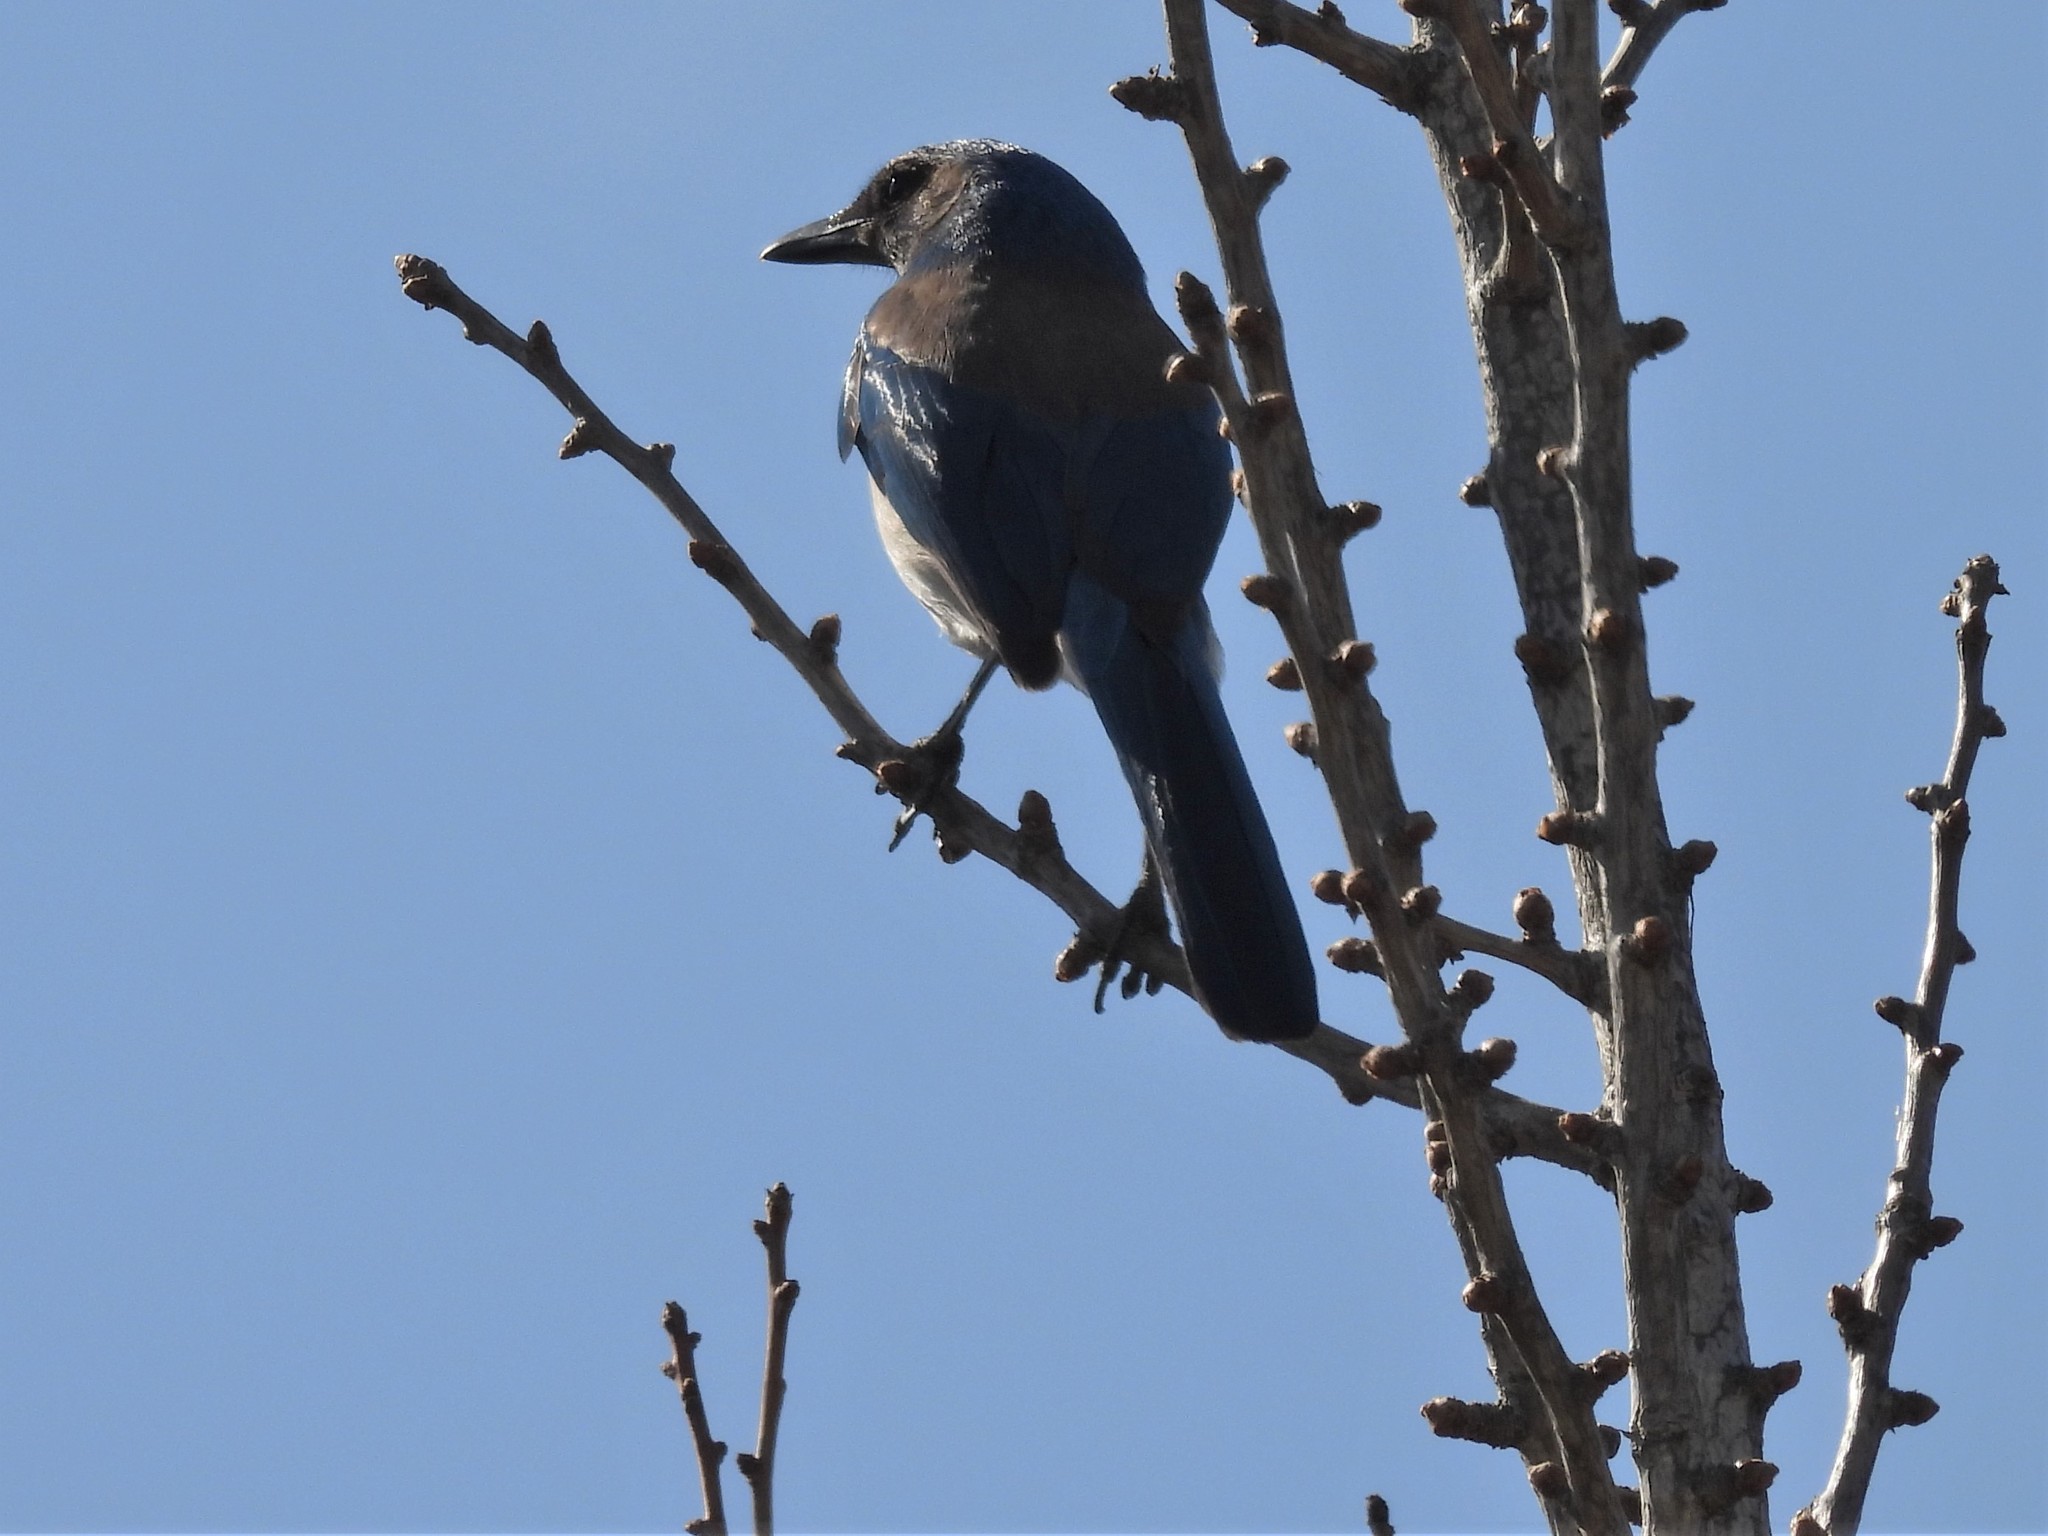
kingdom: Animalia
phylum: Chordata
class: Aves
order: Passeriformes
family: Corvidae
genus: Aphelocoma
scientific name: Aphelocoma californica
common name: California scrub-jay
